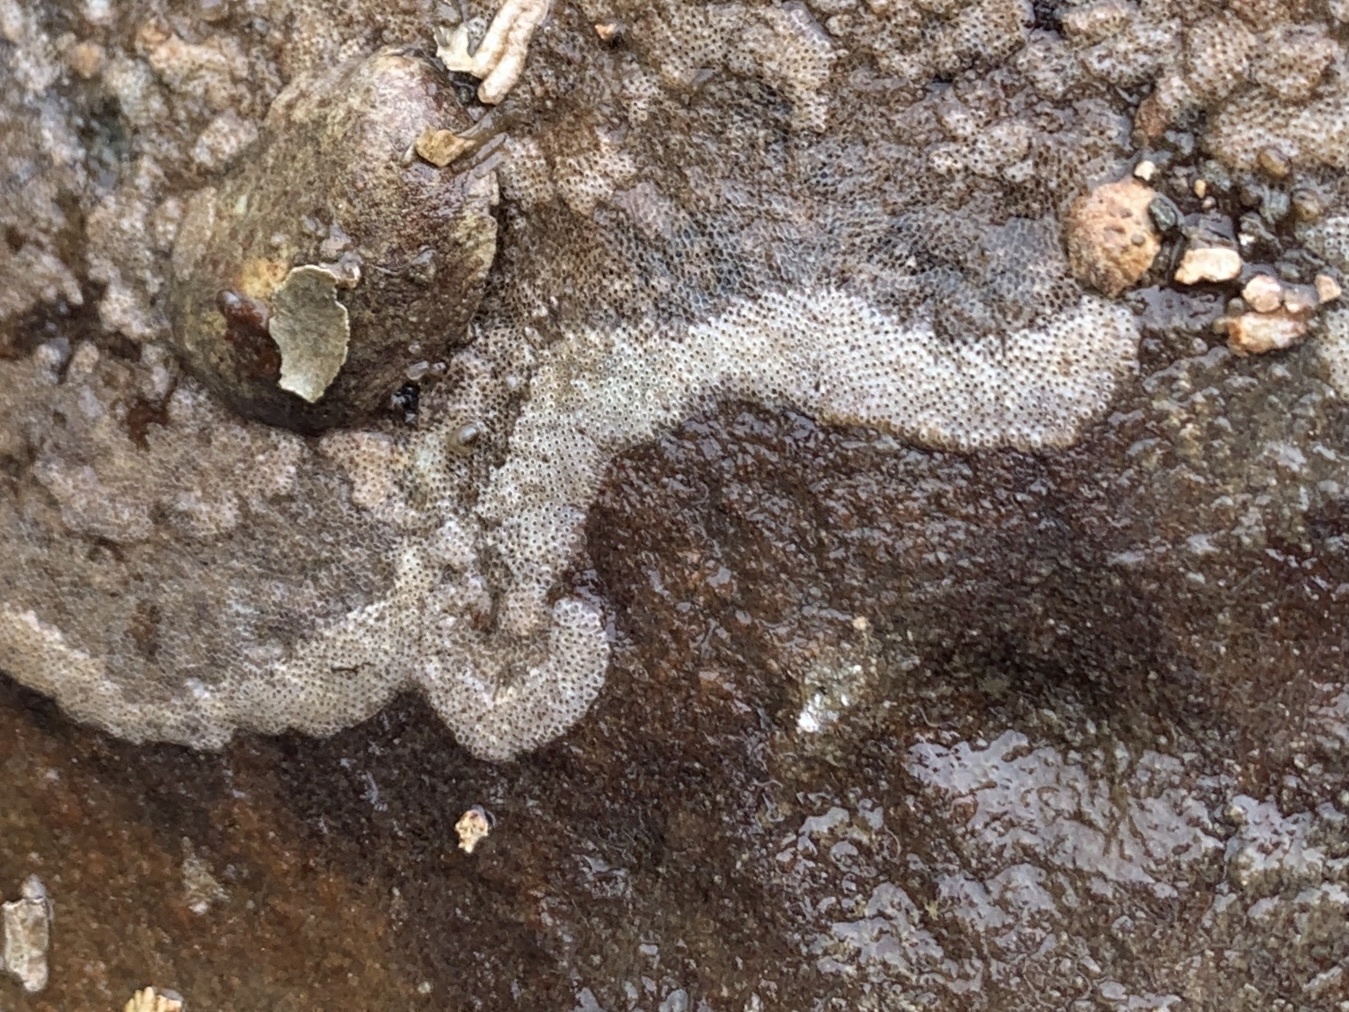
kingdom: Animalia
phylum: Bryozoa
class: Gymnolaemata
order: Cheilostomatida
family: Cryptosulidae
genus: Cryptosula
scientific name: Cryptosula pallasiana
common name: Red crust
